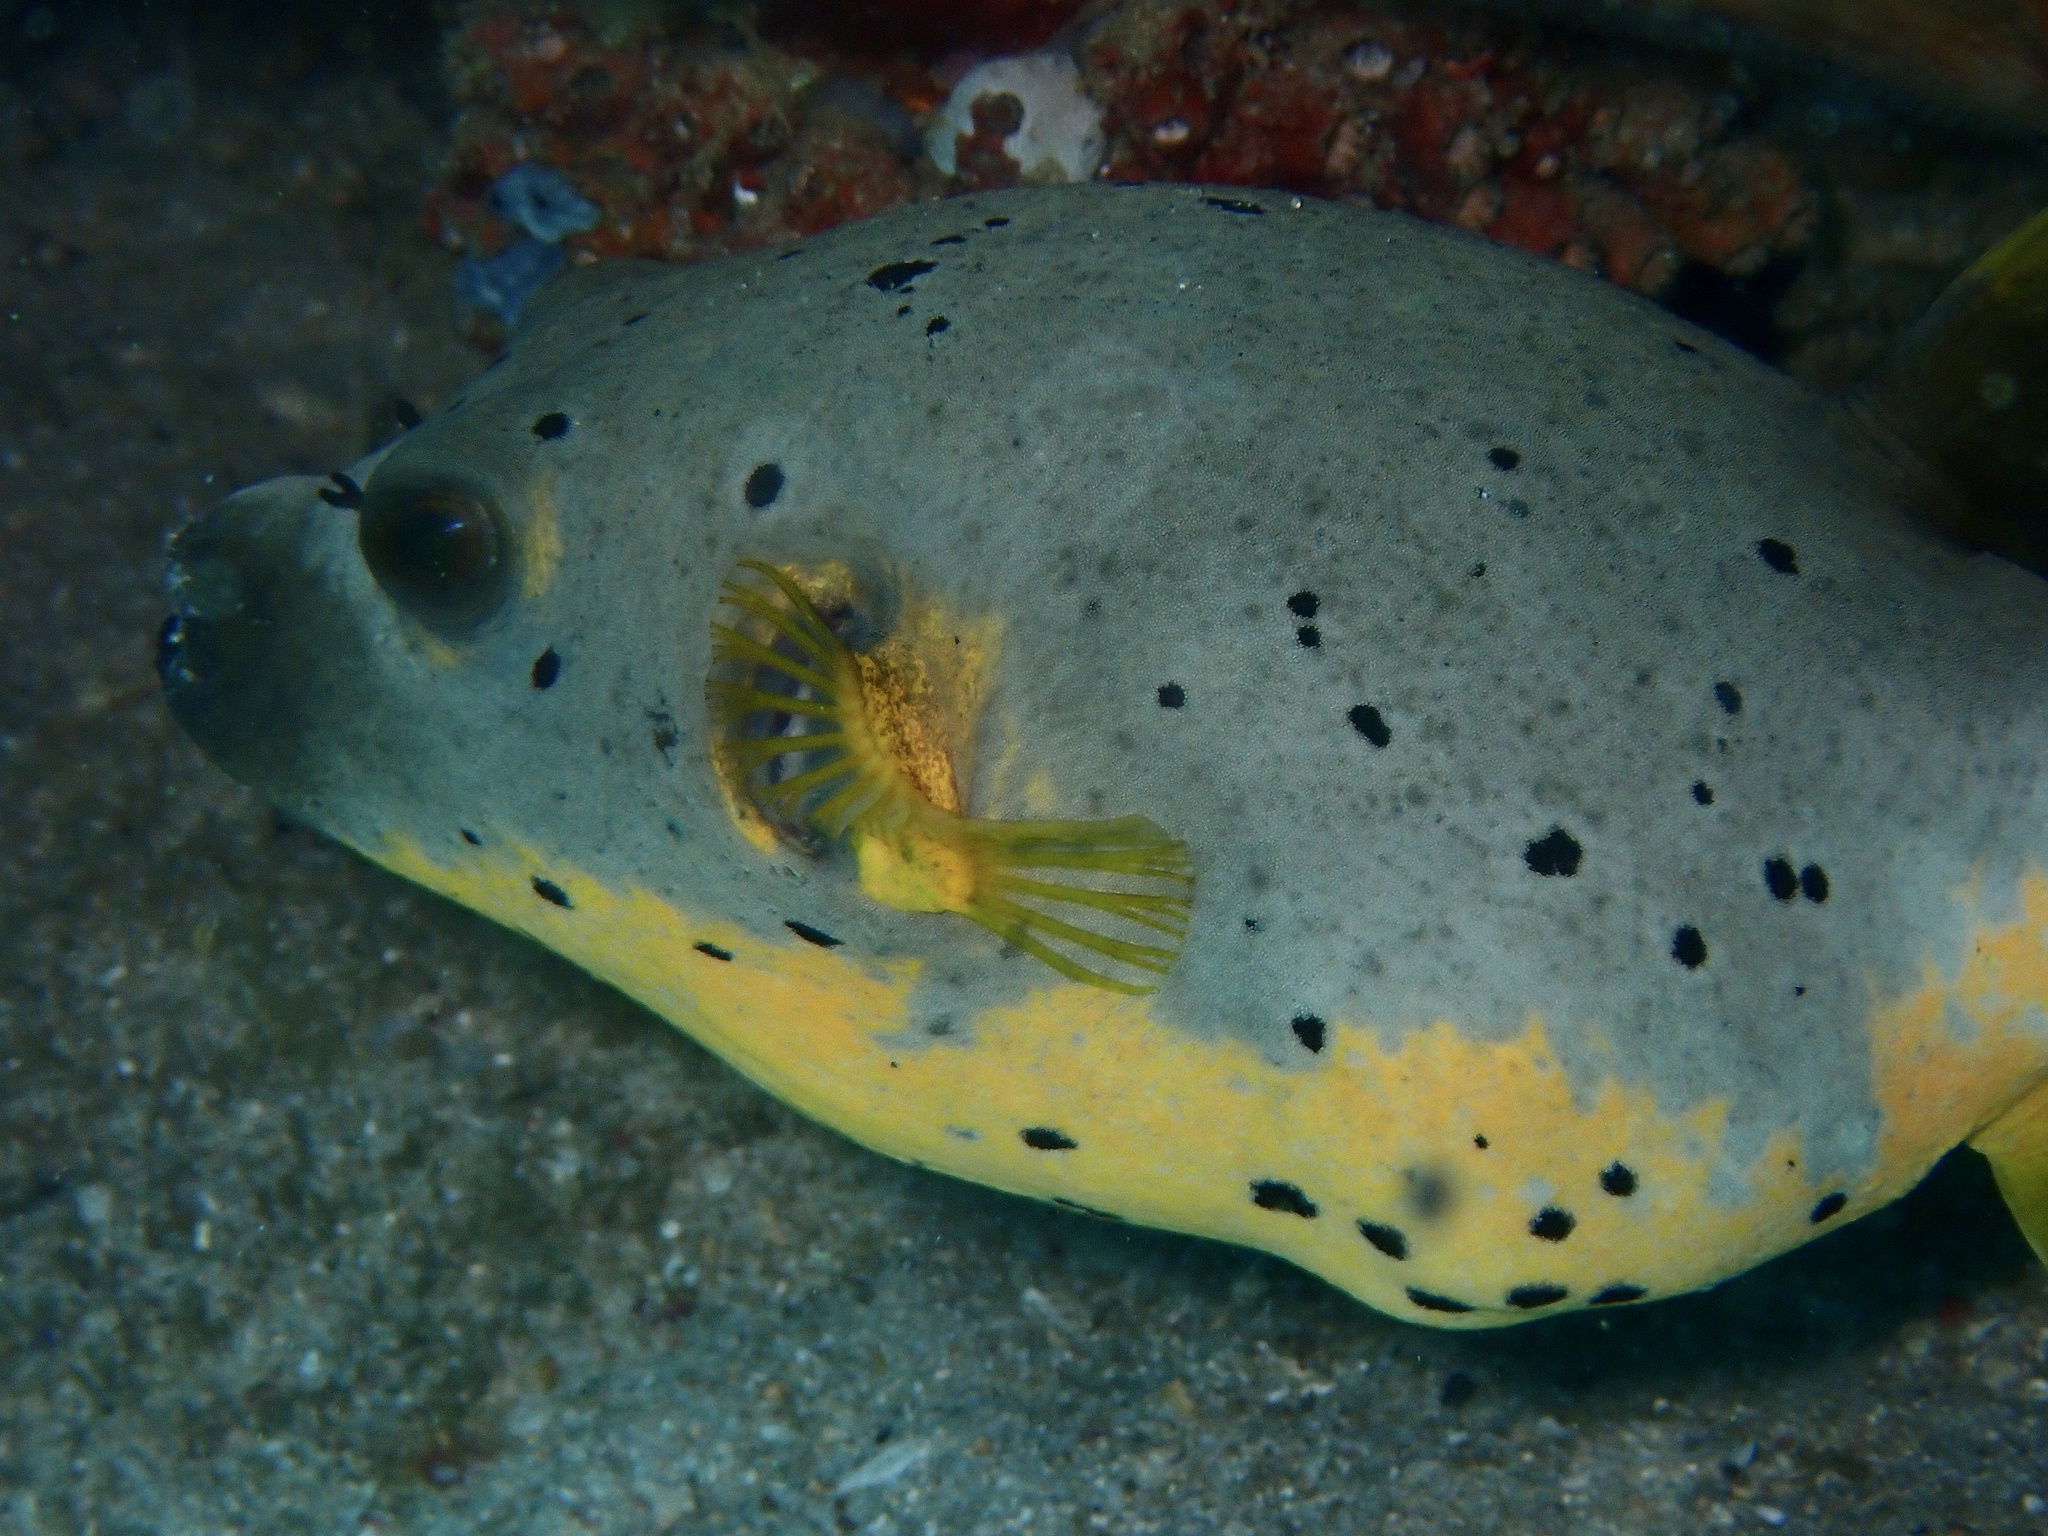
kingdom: Animalia
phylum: Chordata
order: Tetraodontiformes
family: Tetraodontidae
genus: Arothron
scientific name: Arothron nigropunctatus
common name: Black spotted blow fish
